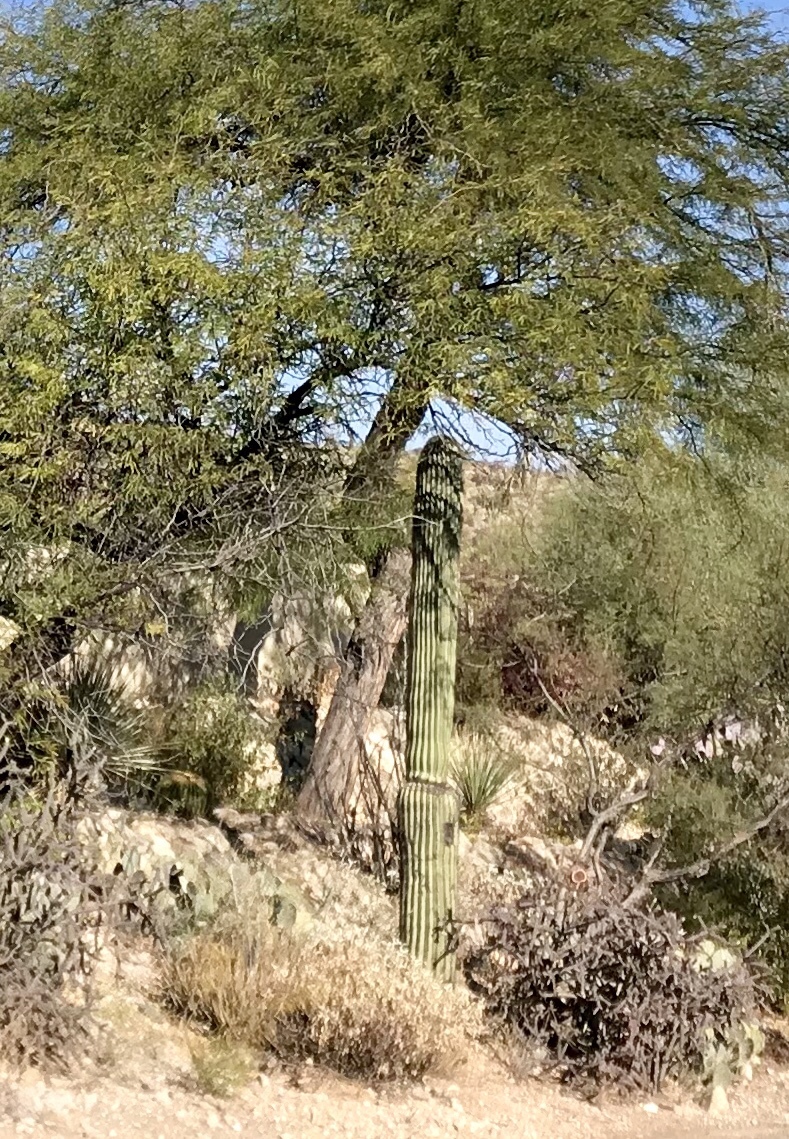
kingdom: Plantae
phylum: Tracheophyta
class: Magnoliopsida
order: Caryophyllales
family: Cactaceae
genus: Carnegiea
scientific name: Carnegiea gigantea
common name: Saguaro
